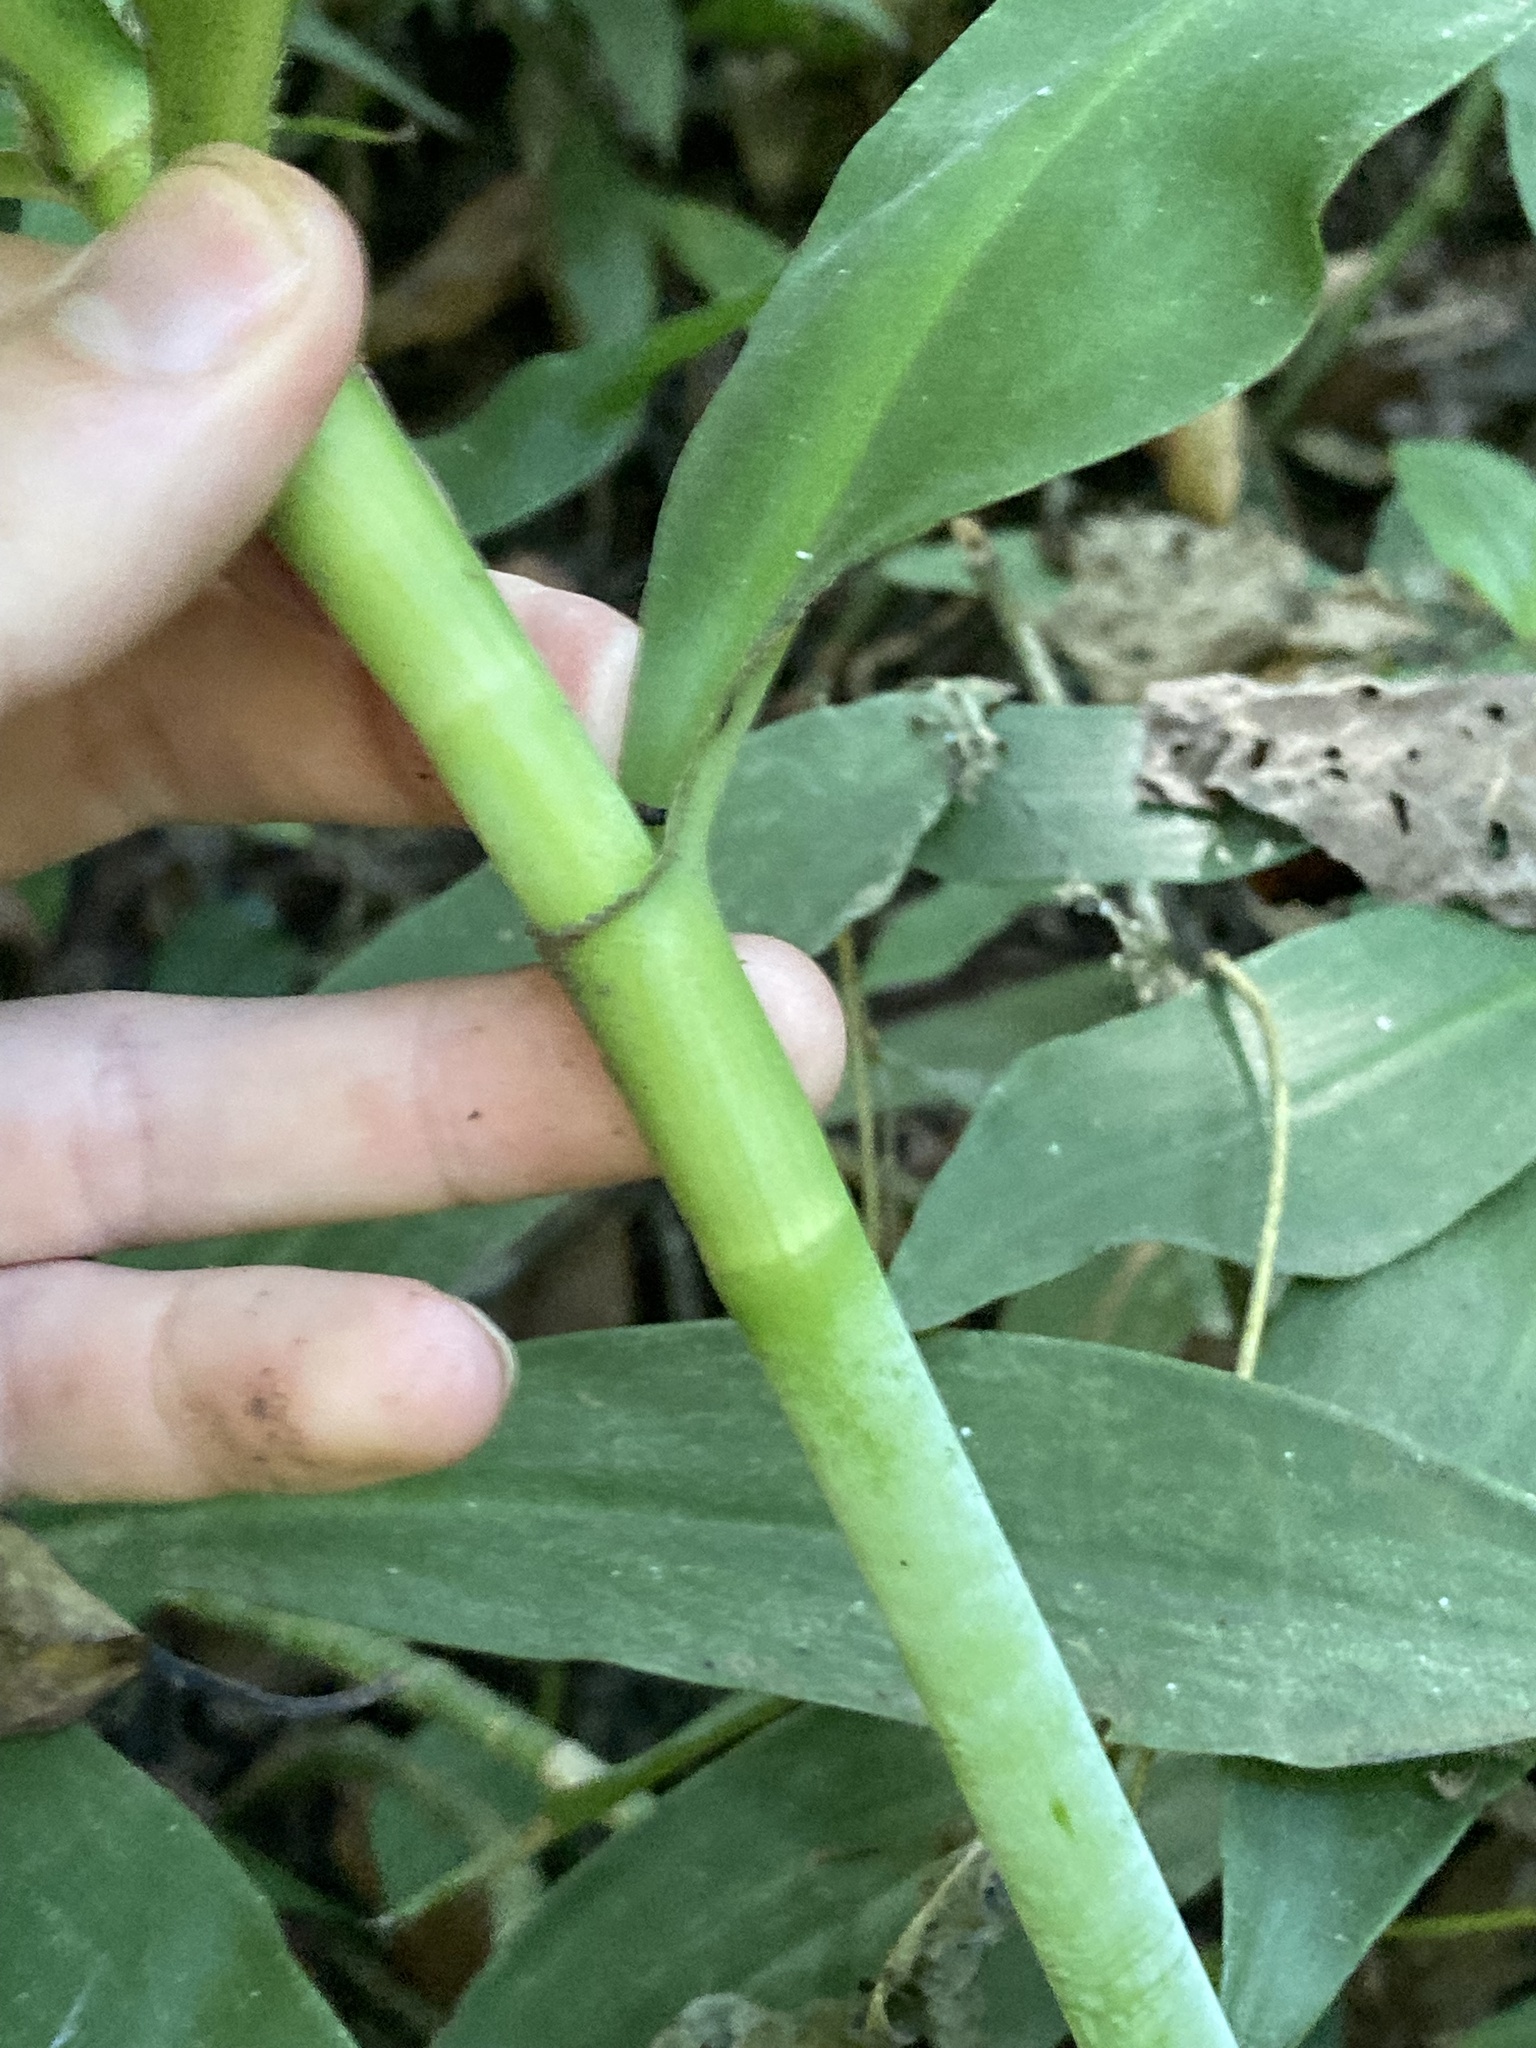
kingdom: Plantae
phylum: Tracheophyta
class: Liliopsida
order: Commelinales
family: Commelinaceae
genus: Tradescantia
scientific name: Tradescantia zanonia
